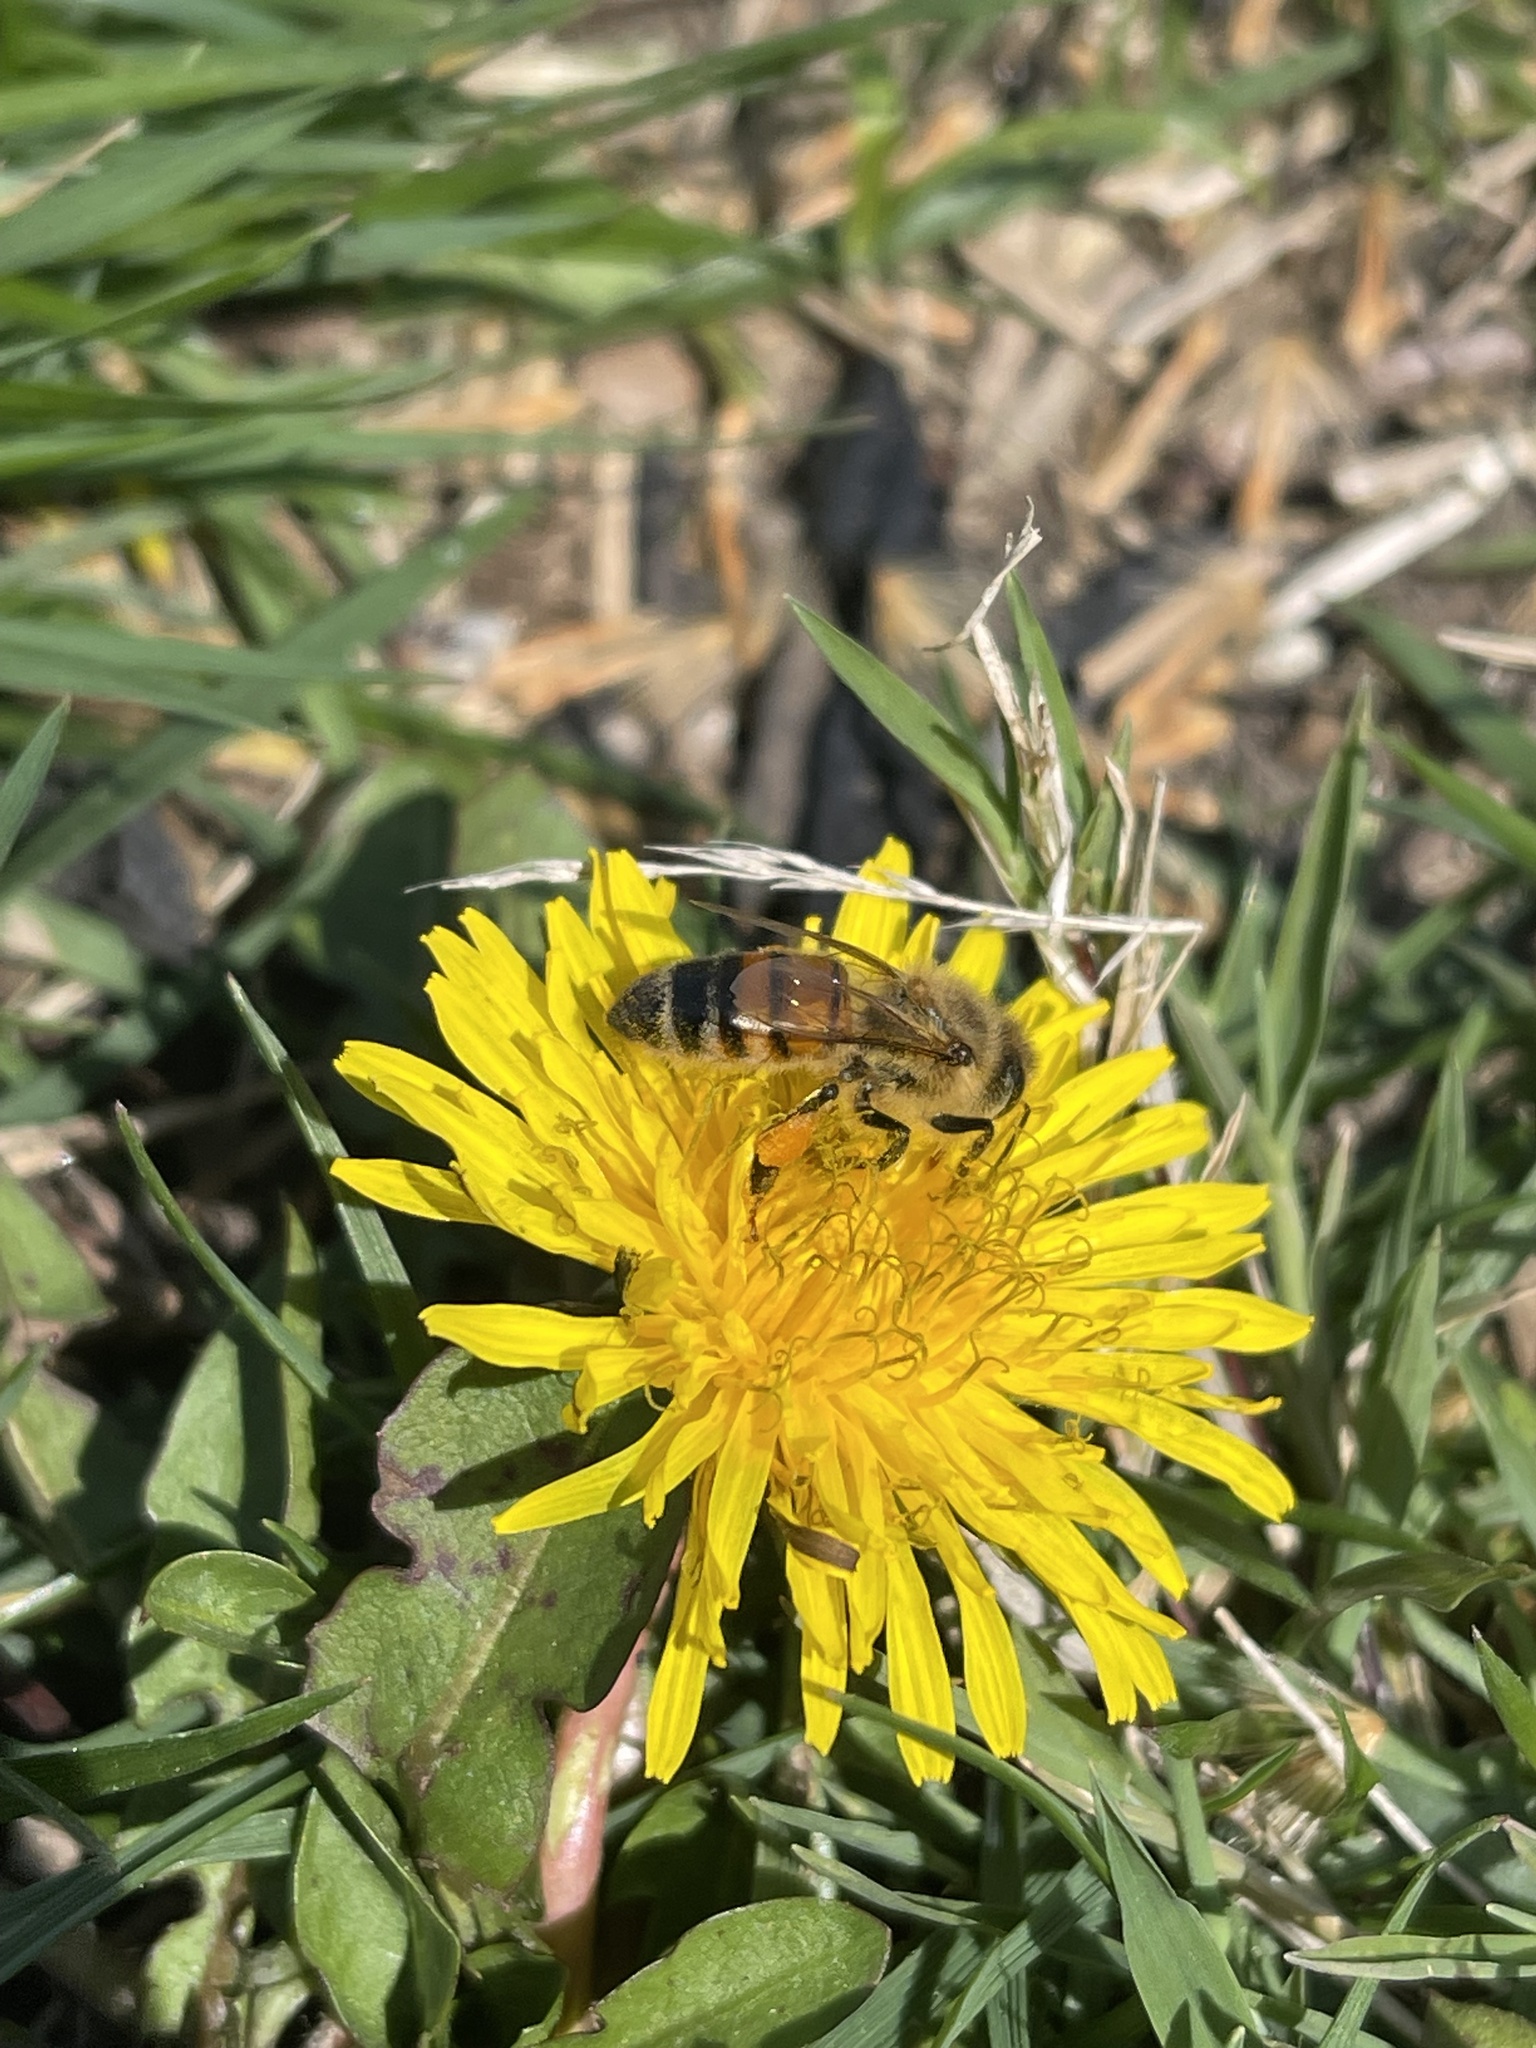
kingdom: Animalia
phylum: Arthropoda
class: Insecta
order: Hymenoptera
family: Apidae
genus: Apis
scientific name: Apis mellifera
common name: Honey bee
